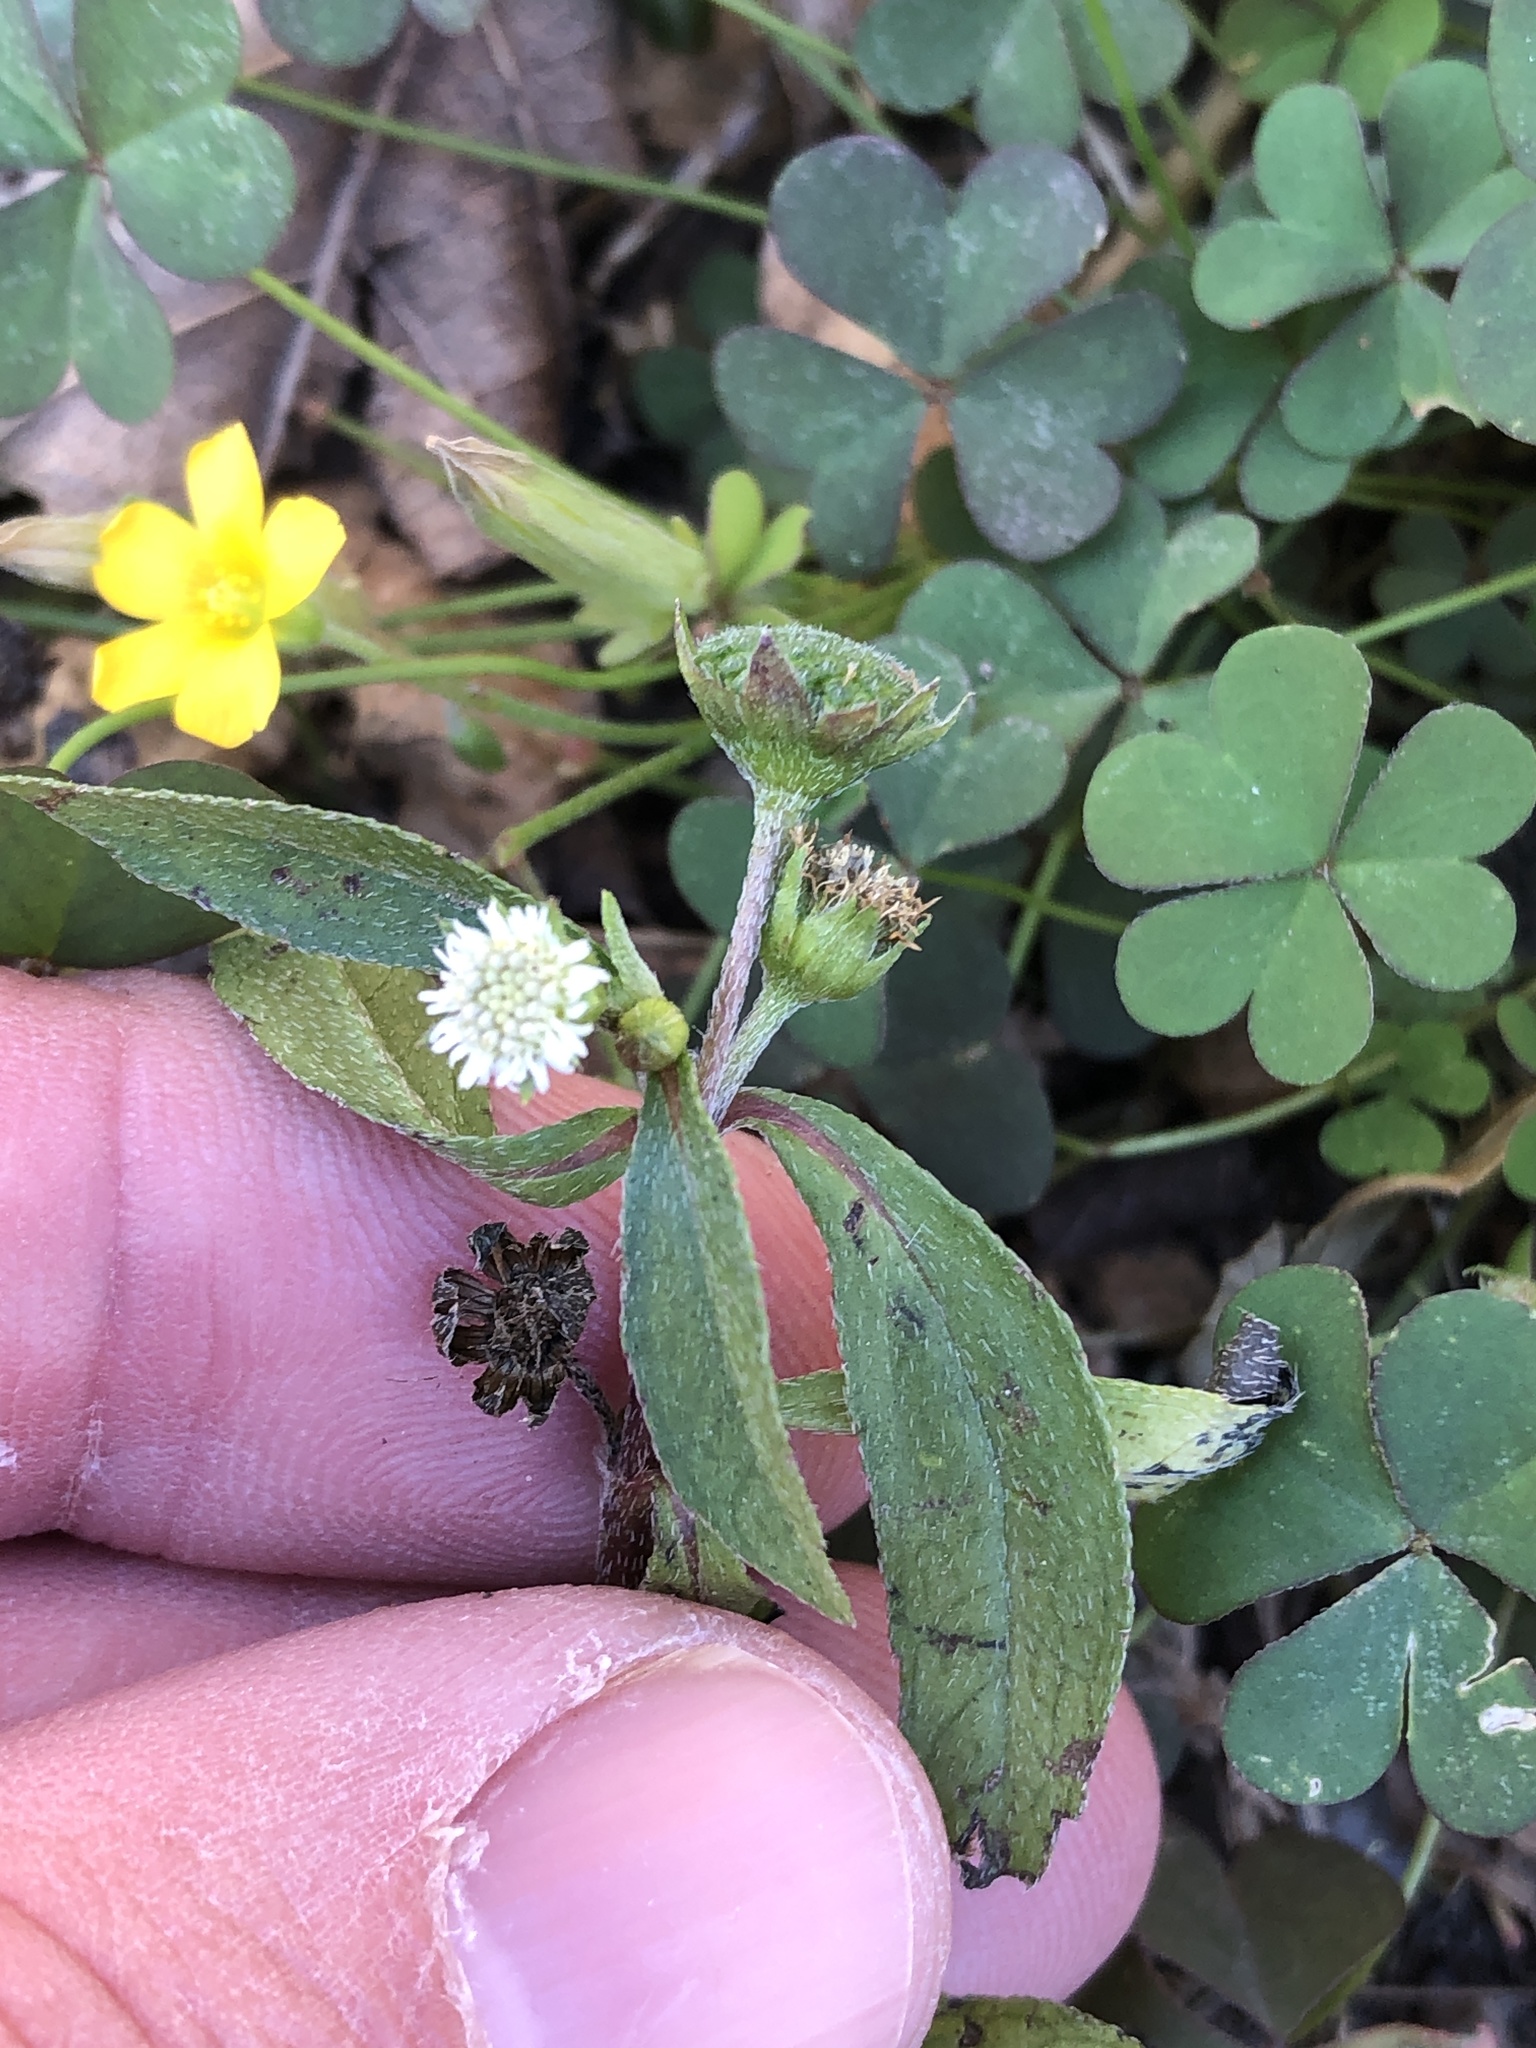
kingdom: Plantae
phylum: Tracheophyta
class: Magnoliopsida
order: Asterales
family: Asteraceae
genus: Eclipta
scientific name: Eclipta prostrata
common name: False daisy
